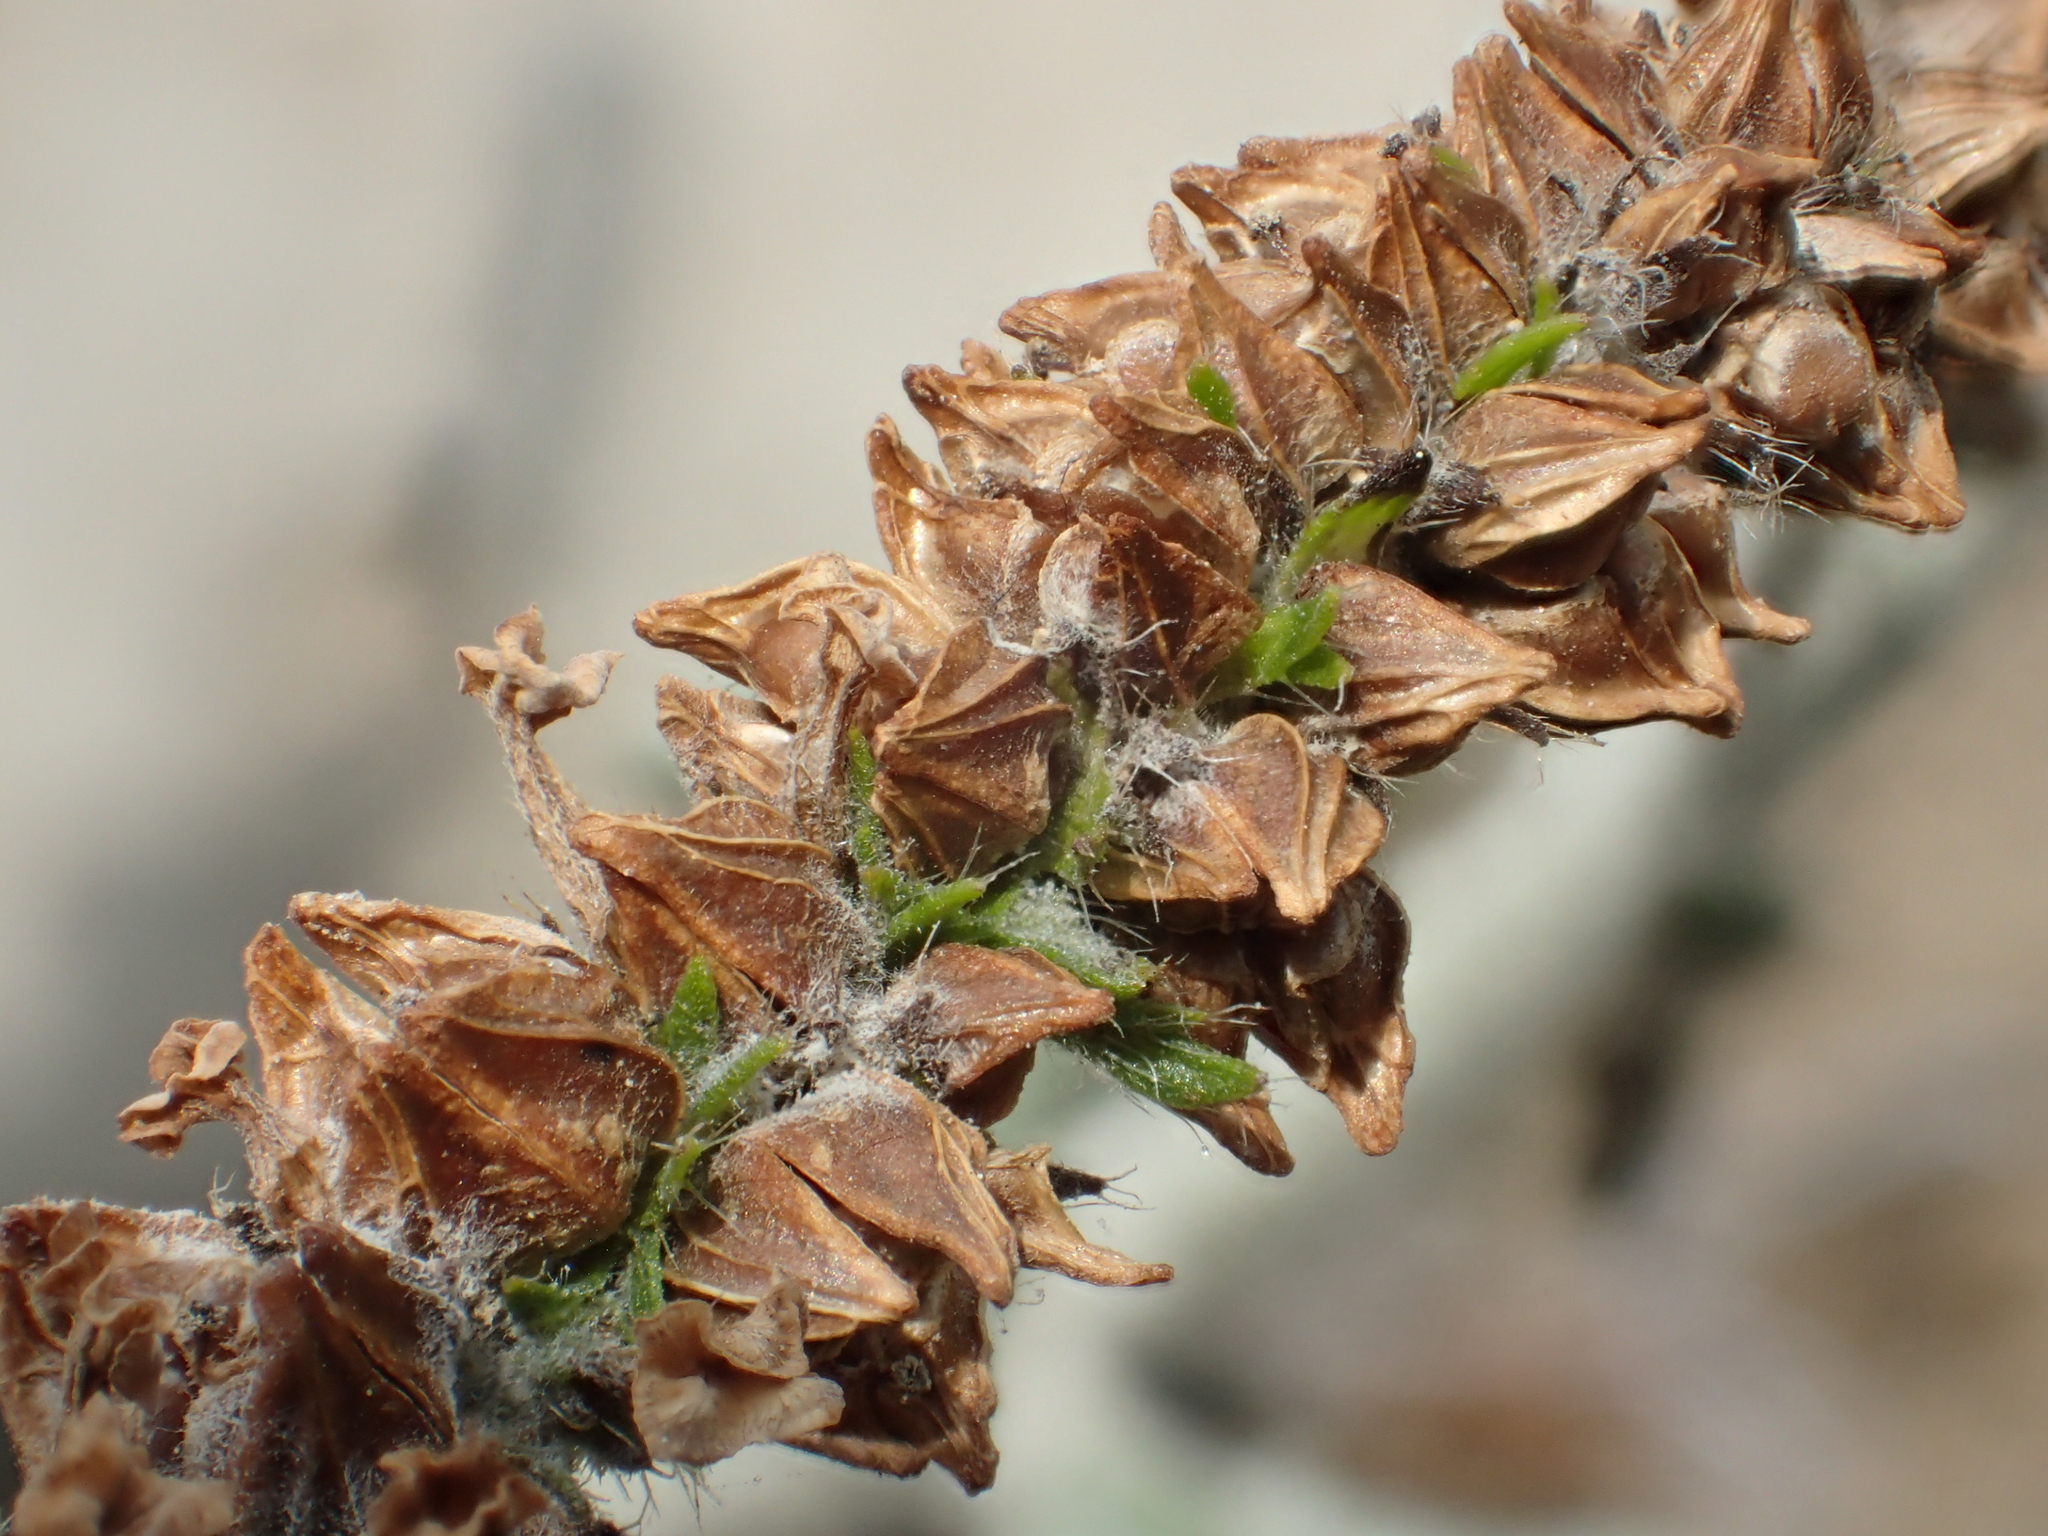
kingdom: Plantae
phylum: Tracheophyta
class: Magnoliopsida
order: Boraginales
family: Heliotropiaceae
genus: Heliotropium
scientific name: Heliotropium indicum
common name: Indian heliotrope
